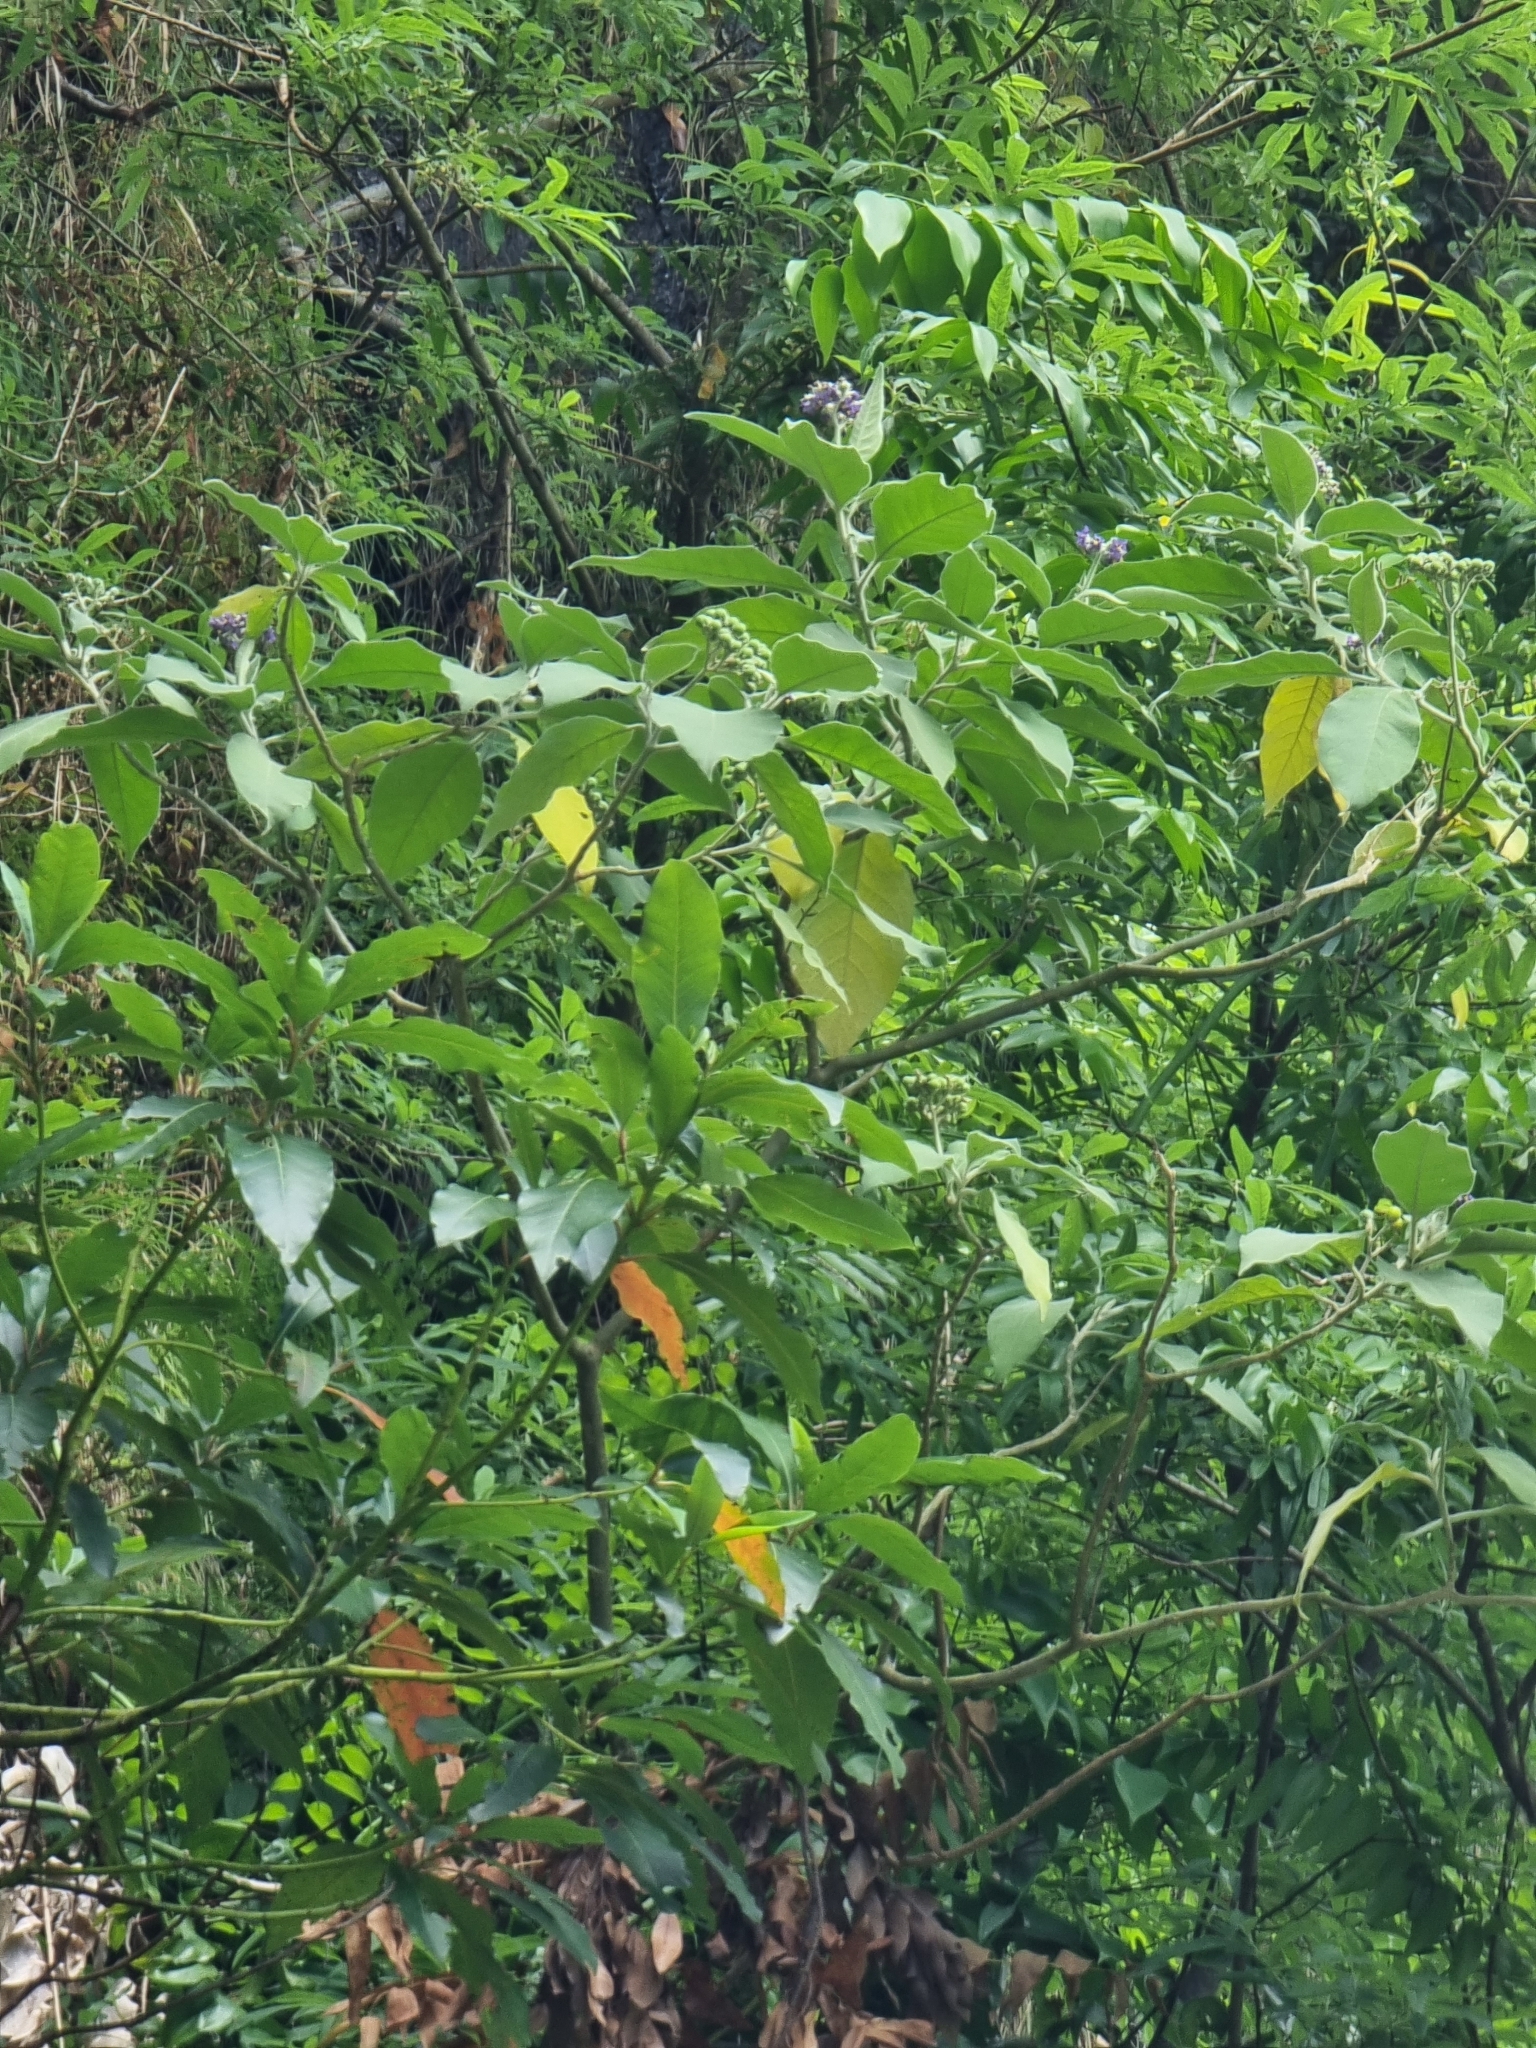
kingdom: Plantae
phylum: Tracheophyta
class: Magnoliopsida
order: Solanales
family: Solanaceae
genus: Solanum
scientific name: Solanum mauritianum
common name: Earleaf nightshade
